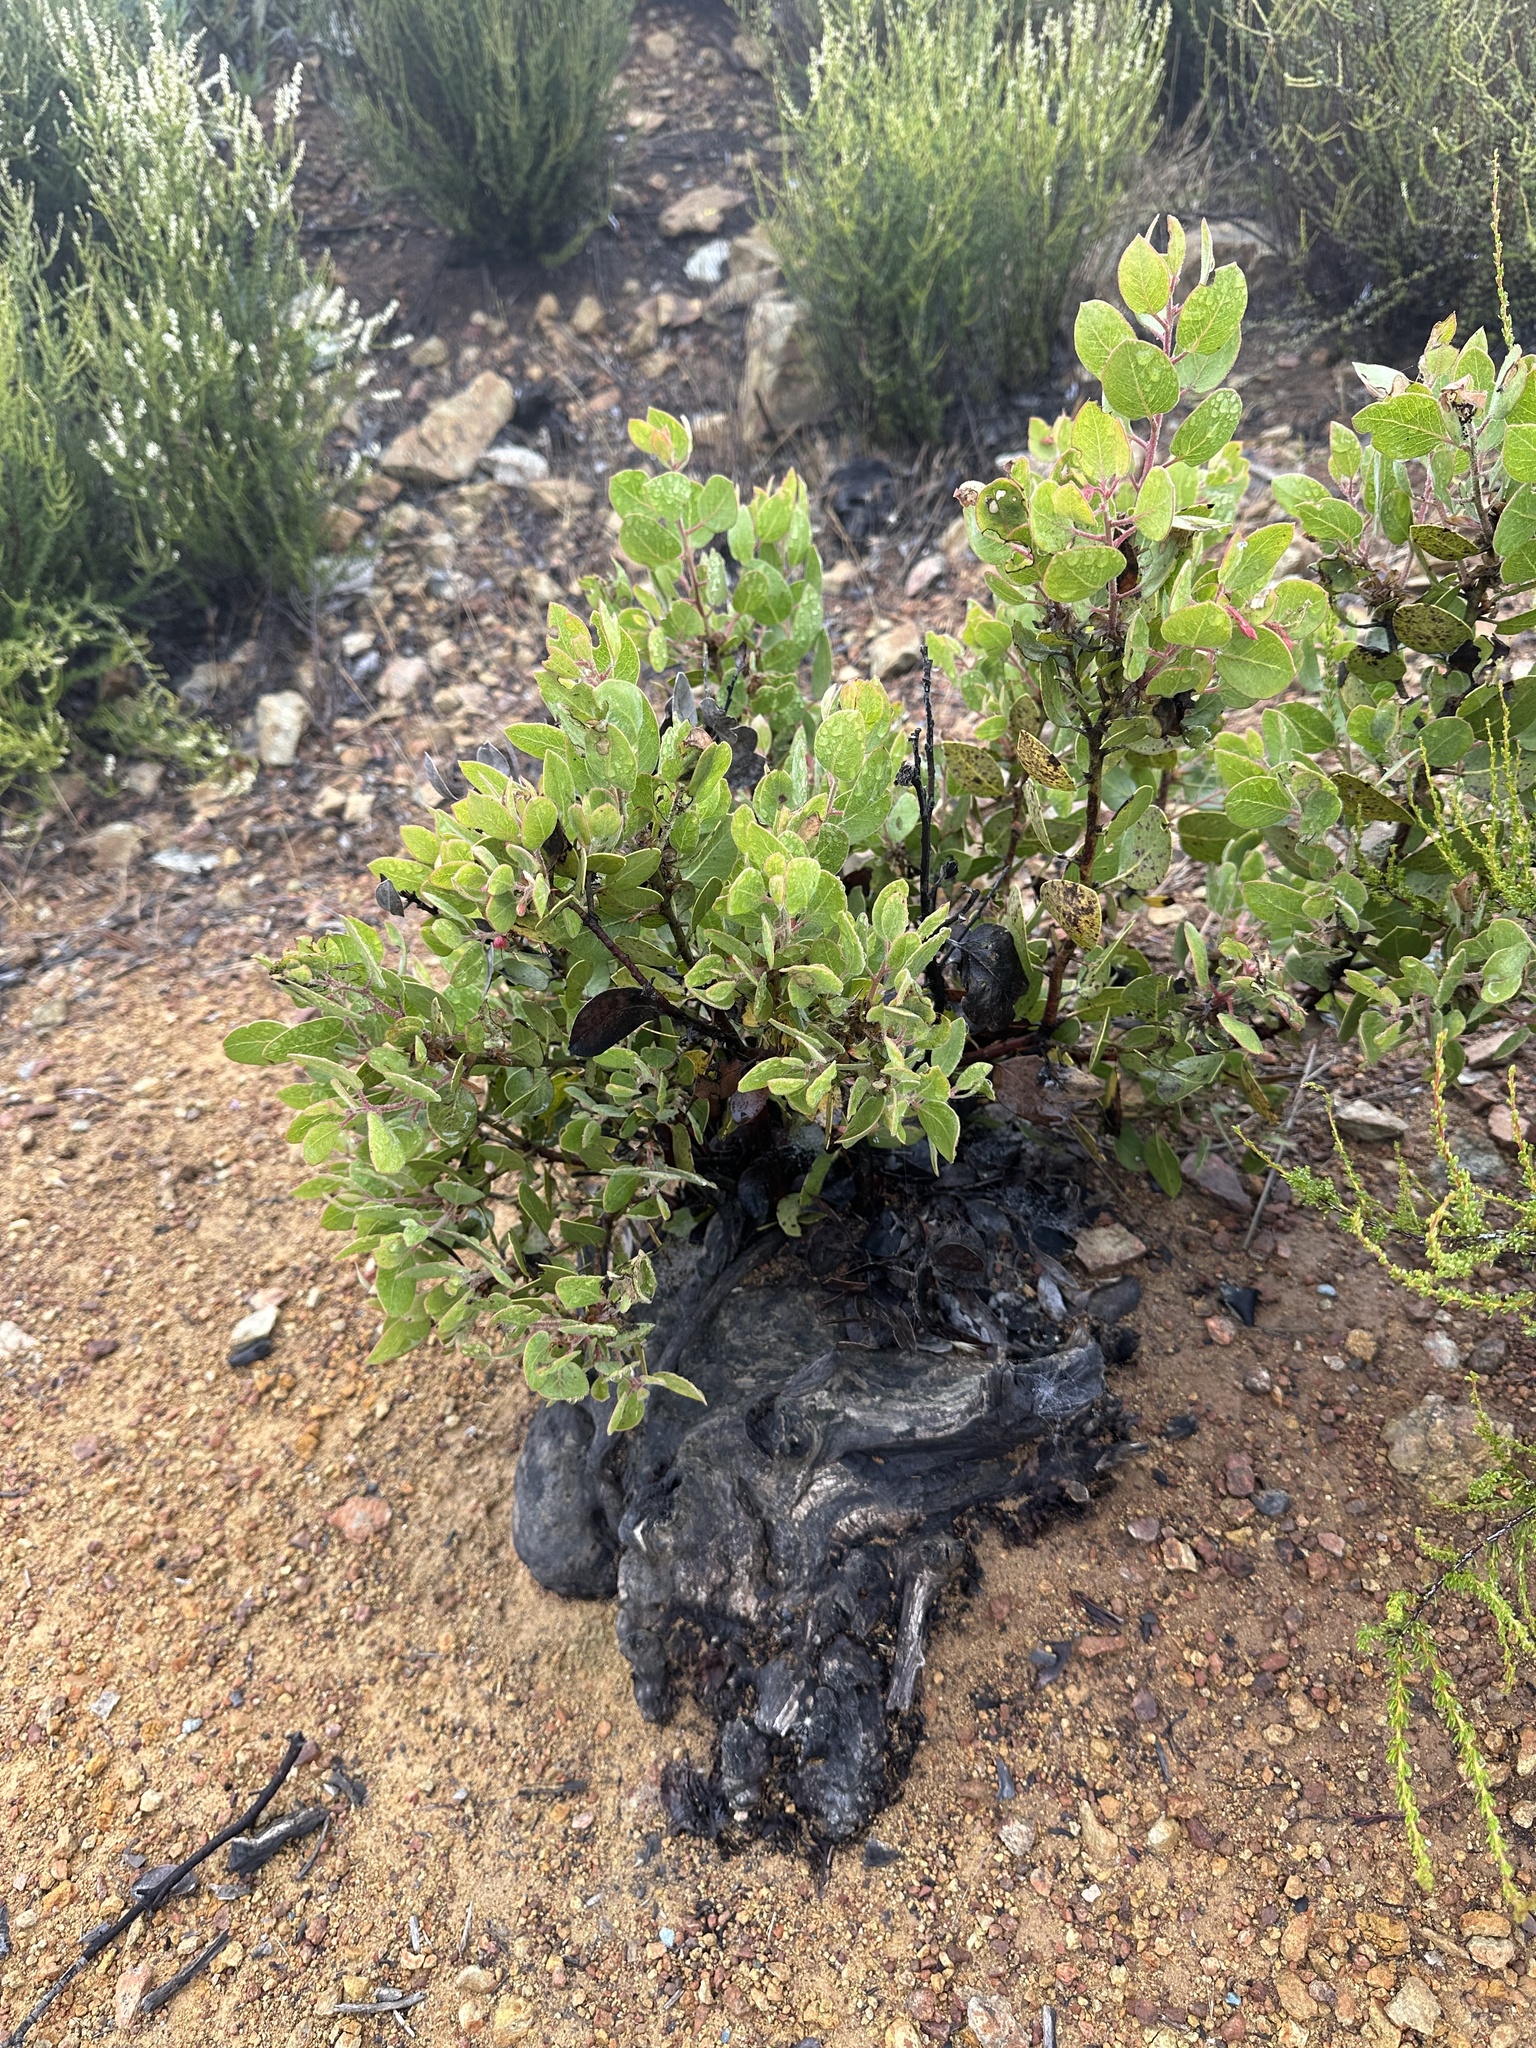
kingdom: Plantae
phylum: Tracheophyta
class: Magnoliopsida
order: Ericales
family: Ericaceae
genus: Arctostaphylos
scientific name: Arctostaphylos glandulosa
